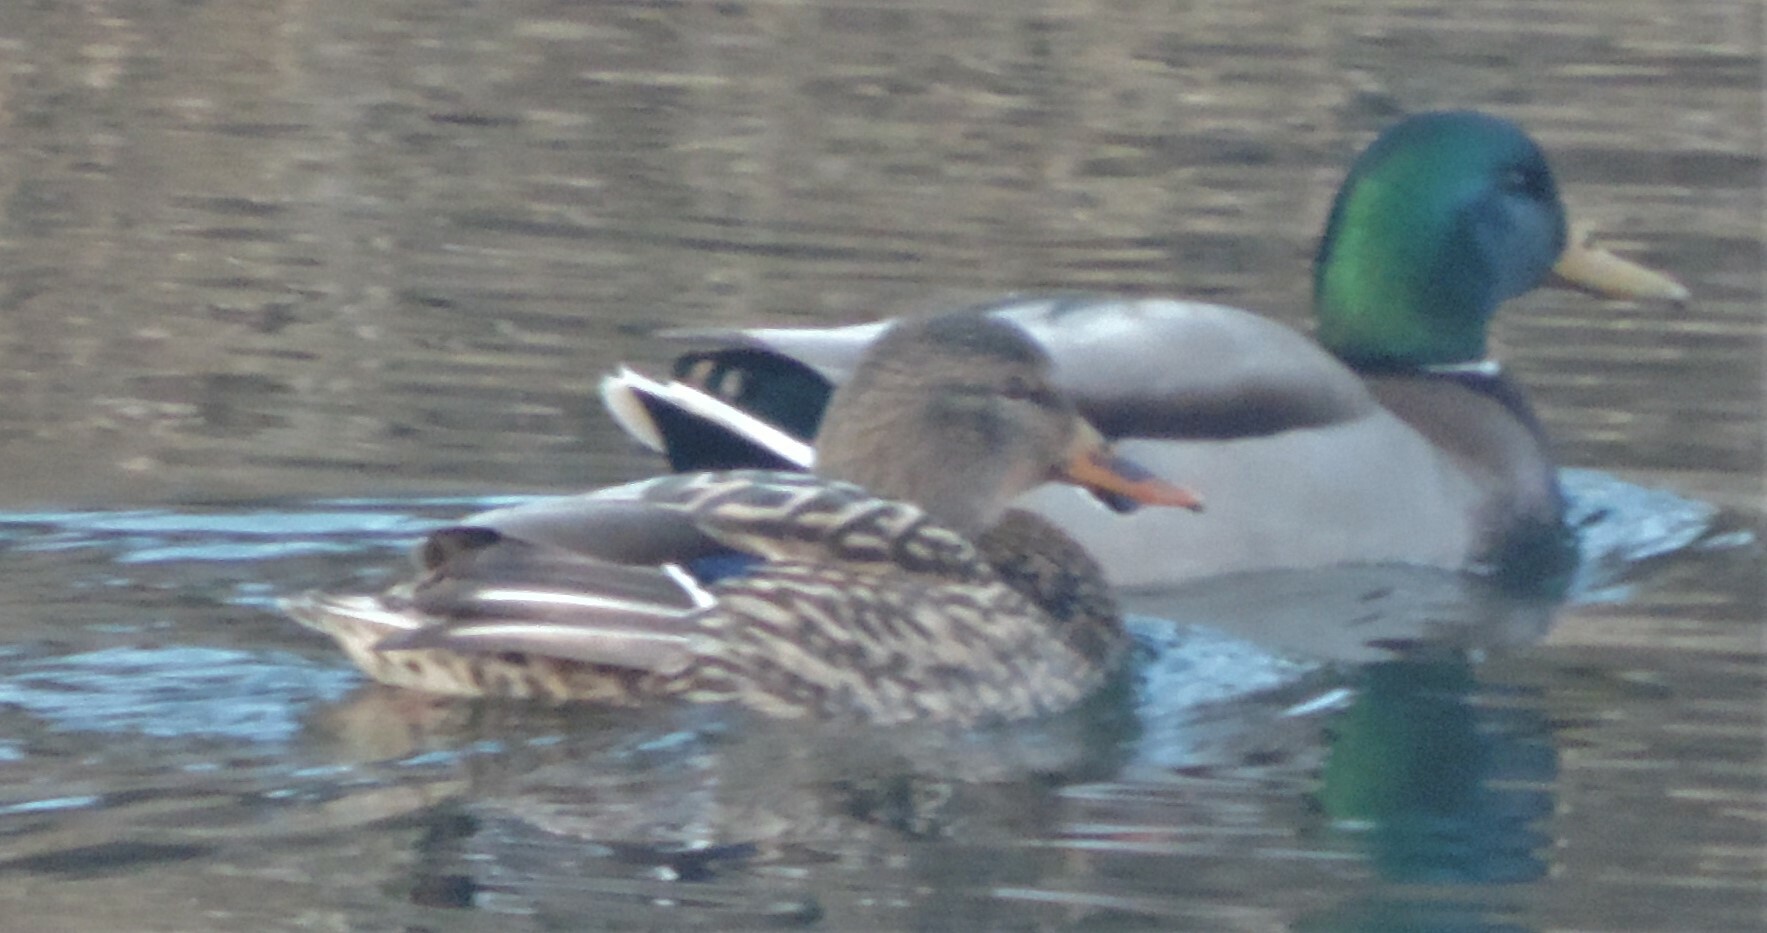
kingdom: Animalia
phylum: Chordata
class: Aves
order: Anseriformes
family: Anatidae
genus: Anas
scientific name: Anas platyrhynchos
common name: Mallard
